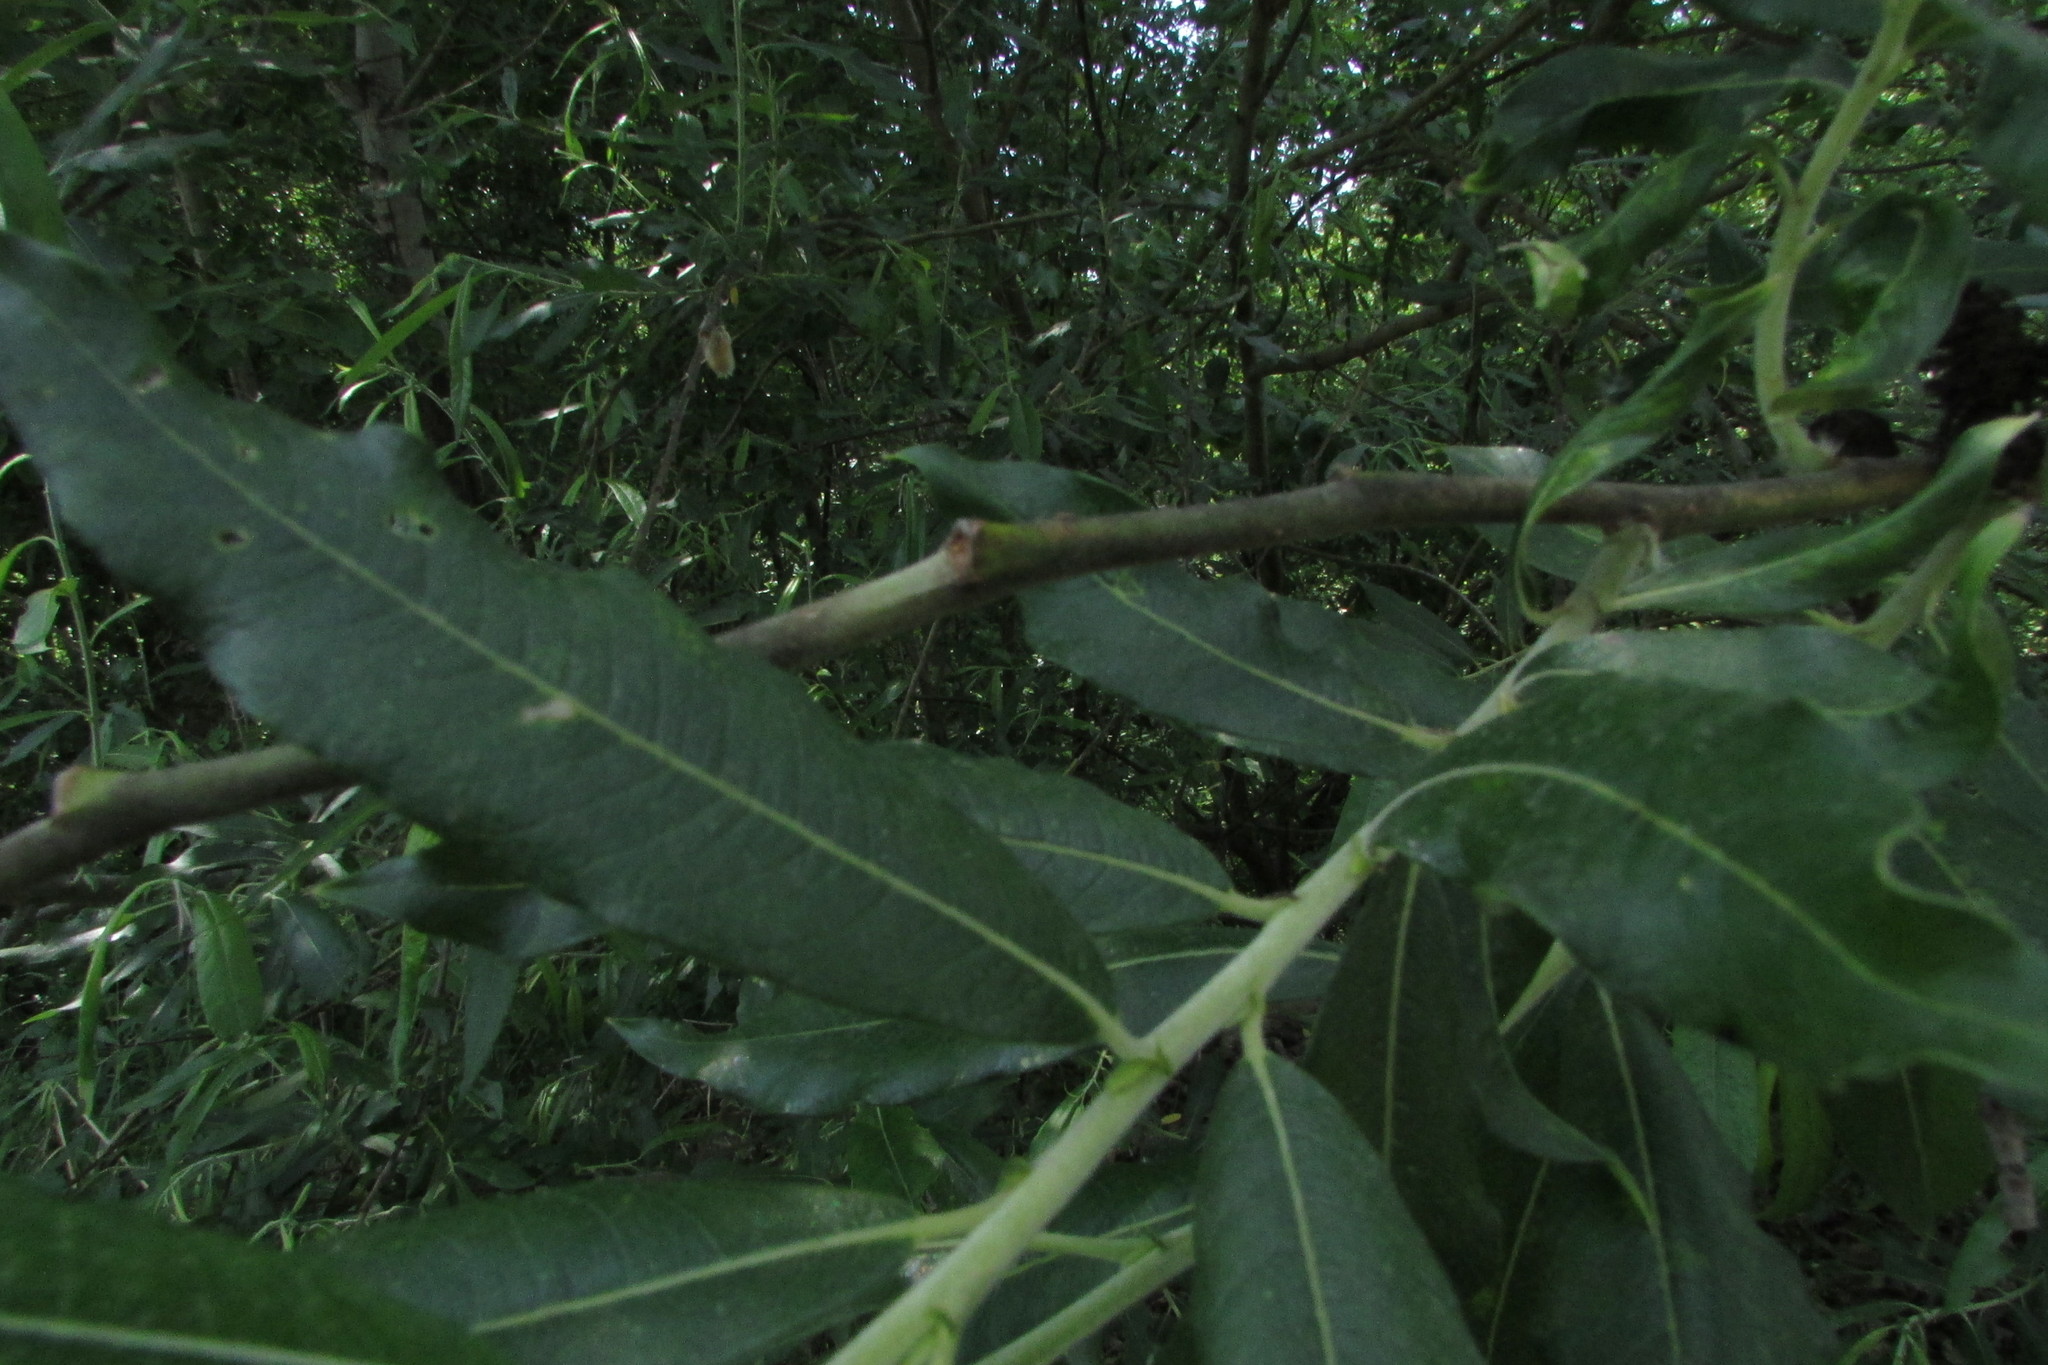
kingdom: Plantae
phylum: Tracheophyta
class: Magnoliopsida
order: Malpighiales
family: Salicaceae
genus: Salix
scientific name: Salix gmelinii
